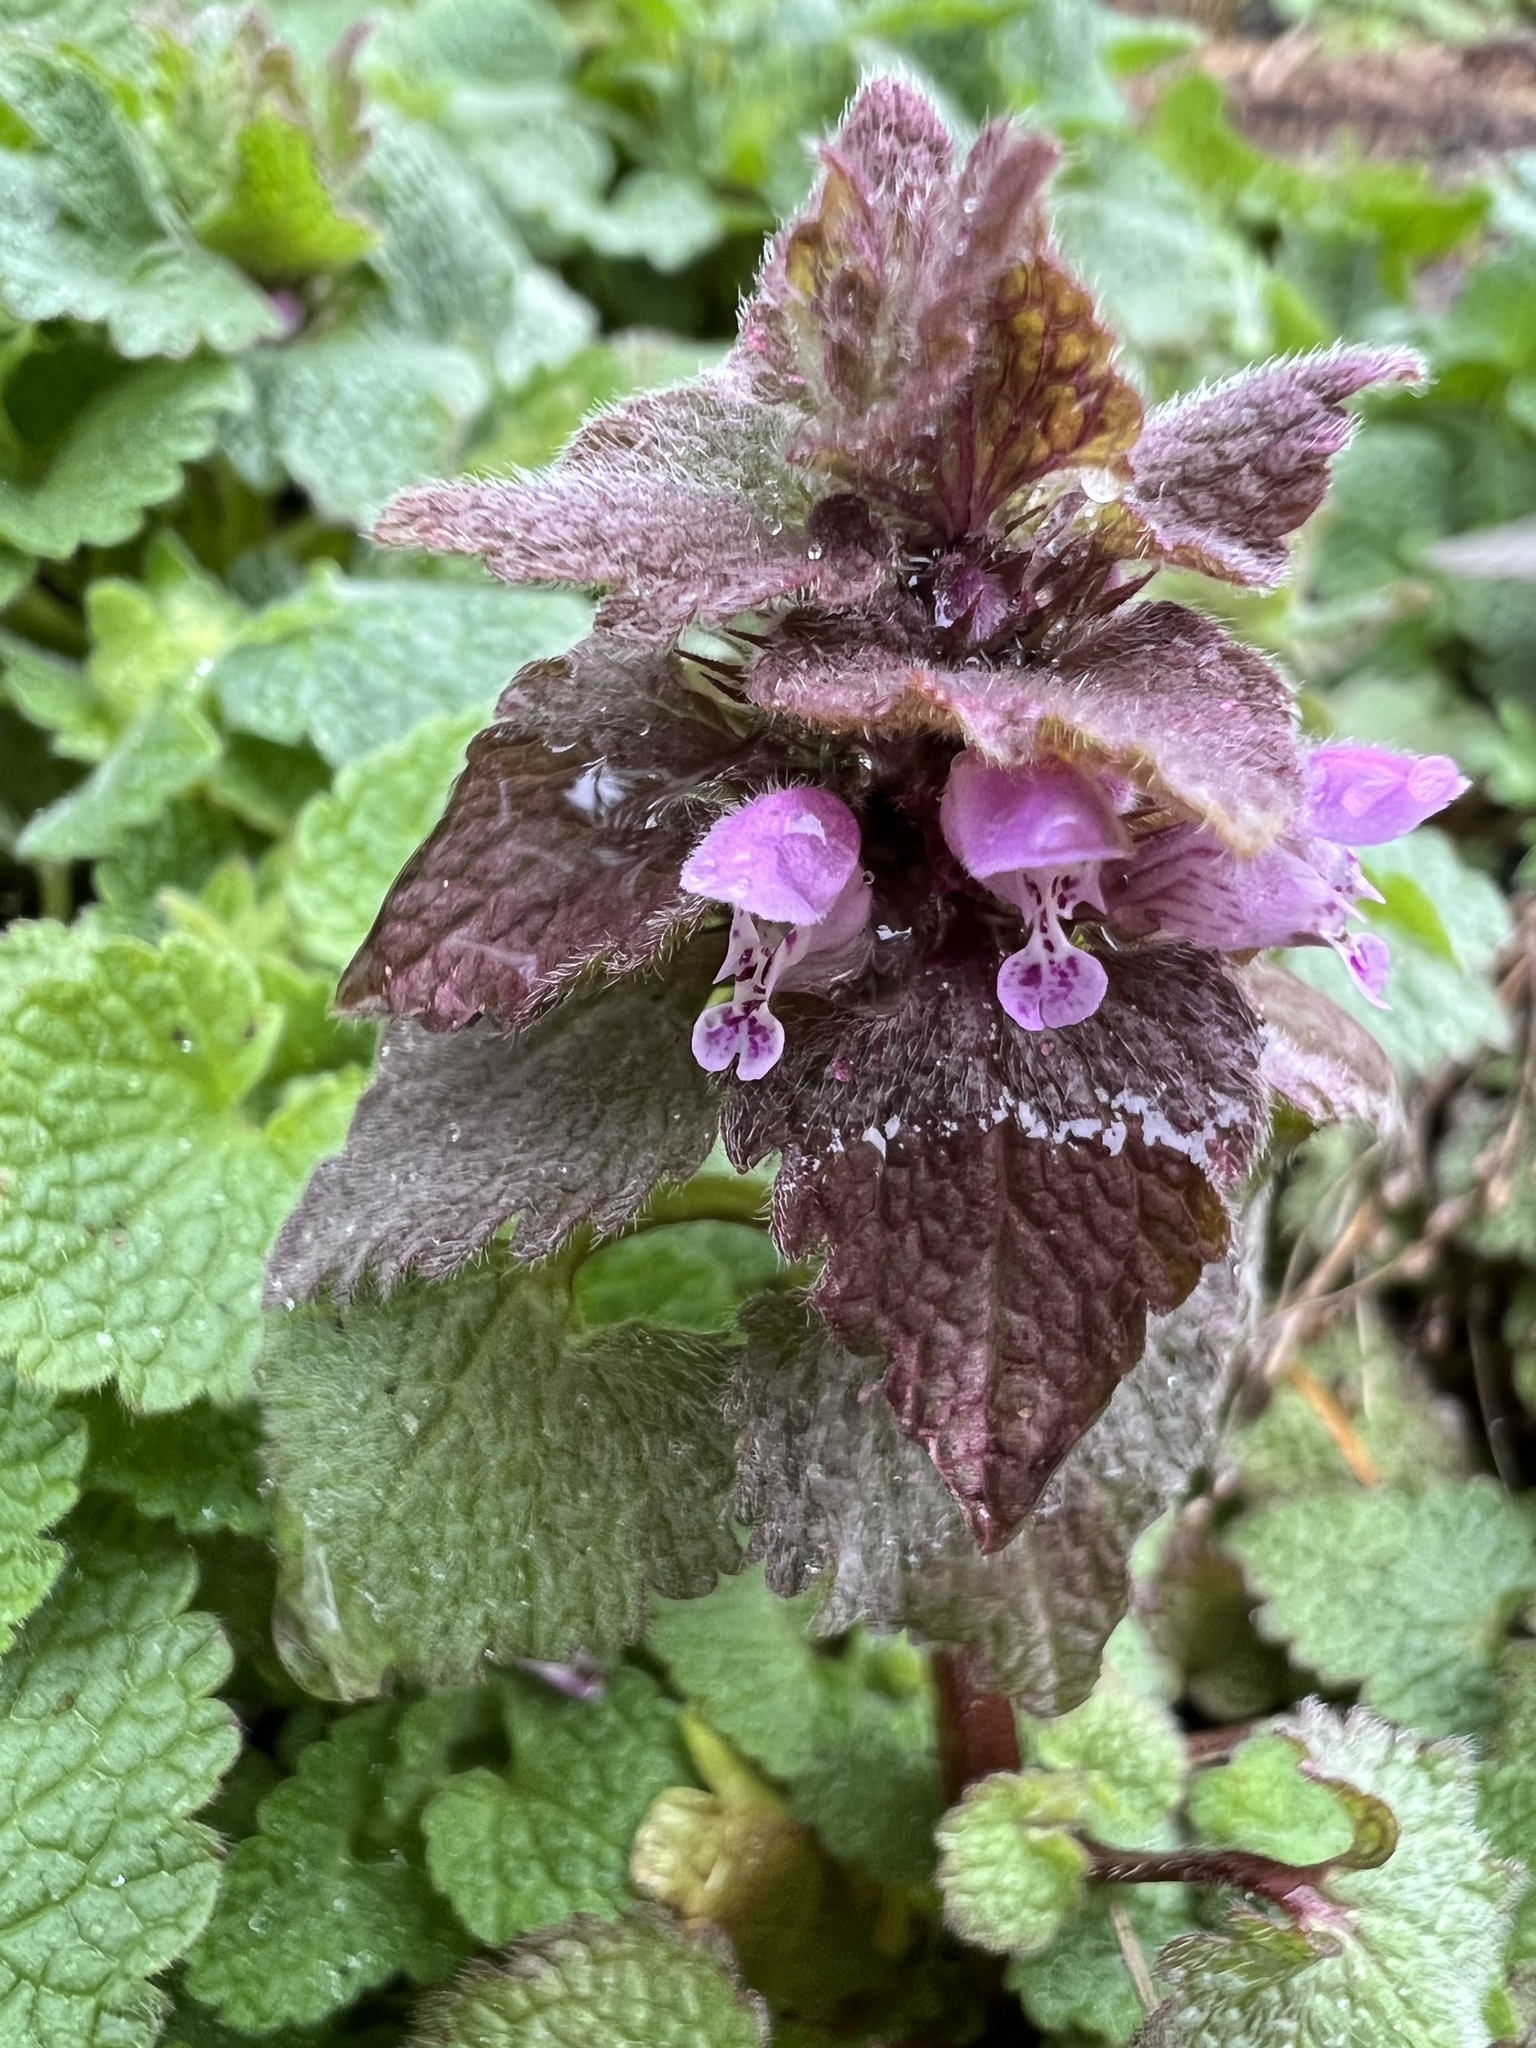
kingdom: Plantae
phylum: Tracheophyta
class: Magnoliopsida
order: Lamiales
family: Lamiaceae
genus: Lamium
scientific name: Lamium purpureum
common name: Red dead-nettle
